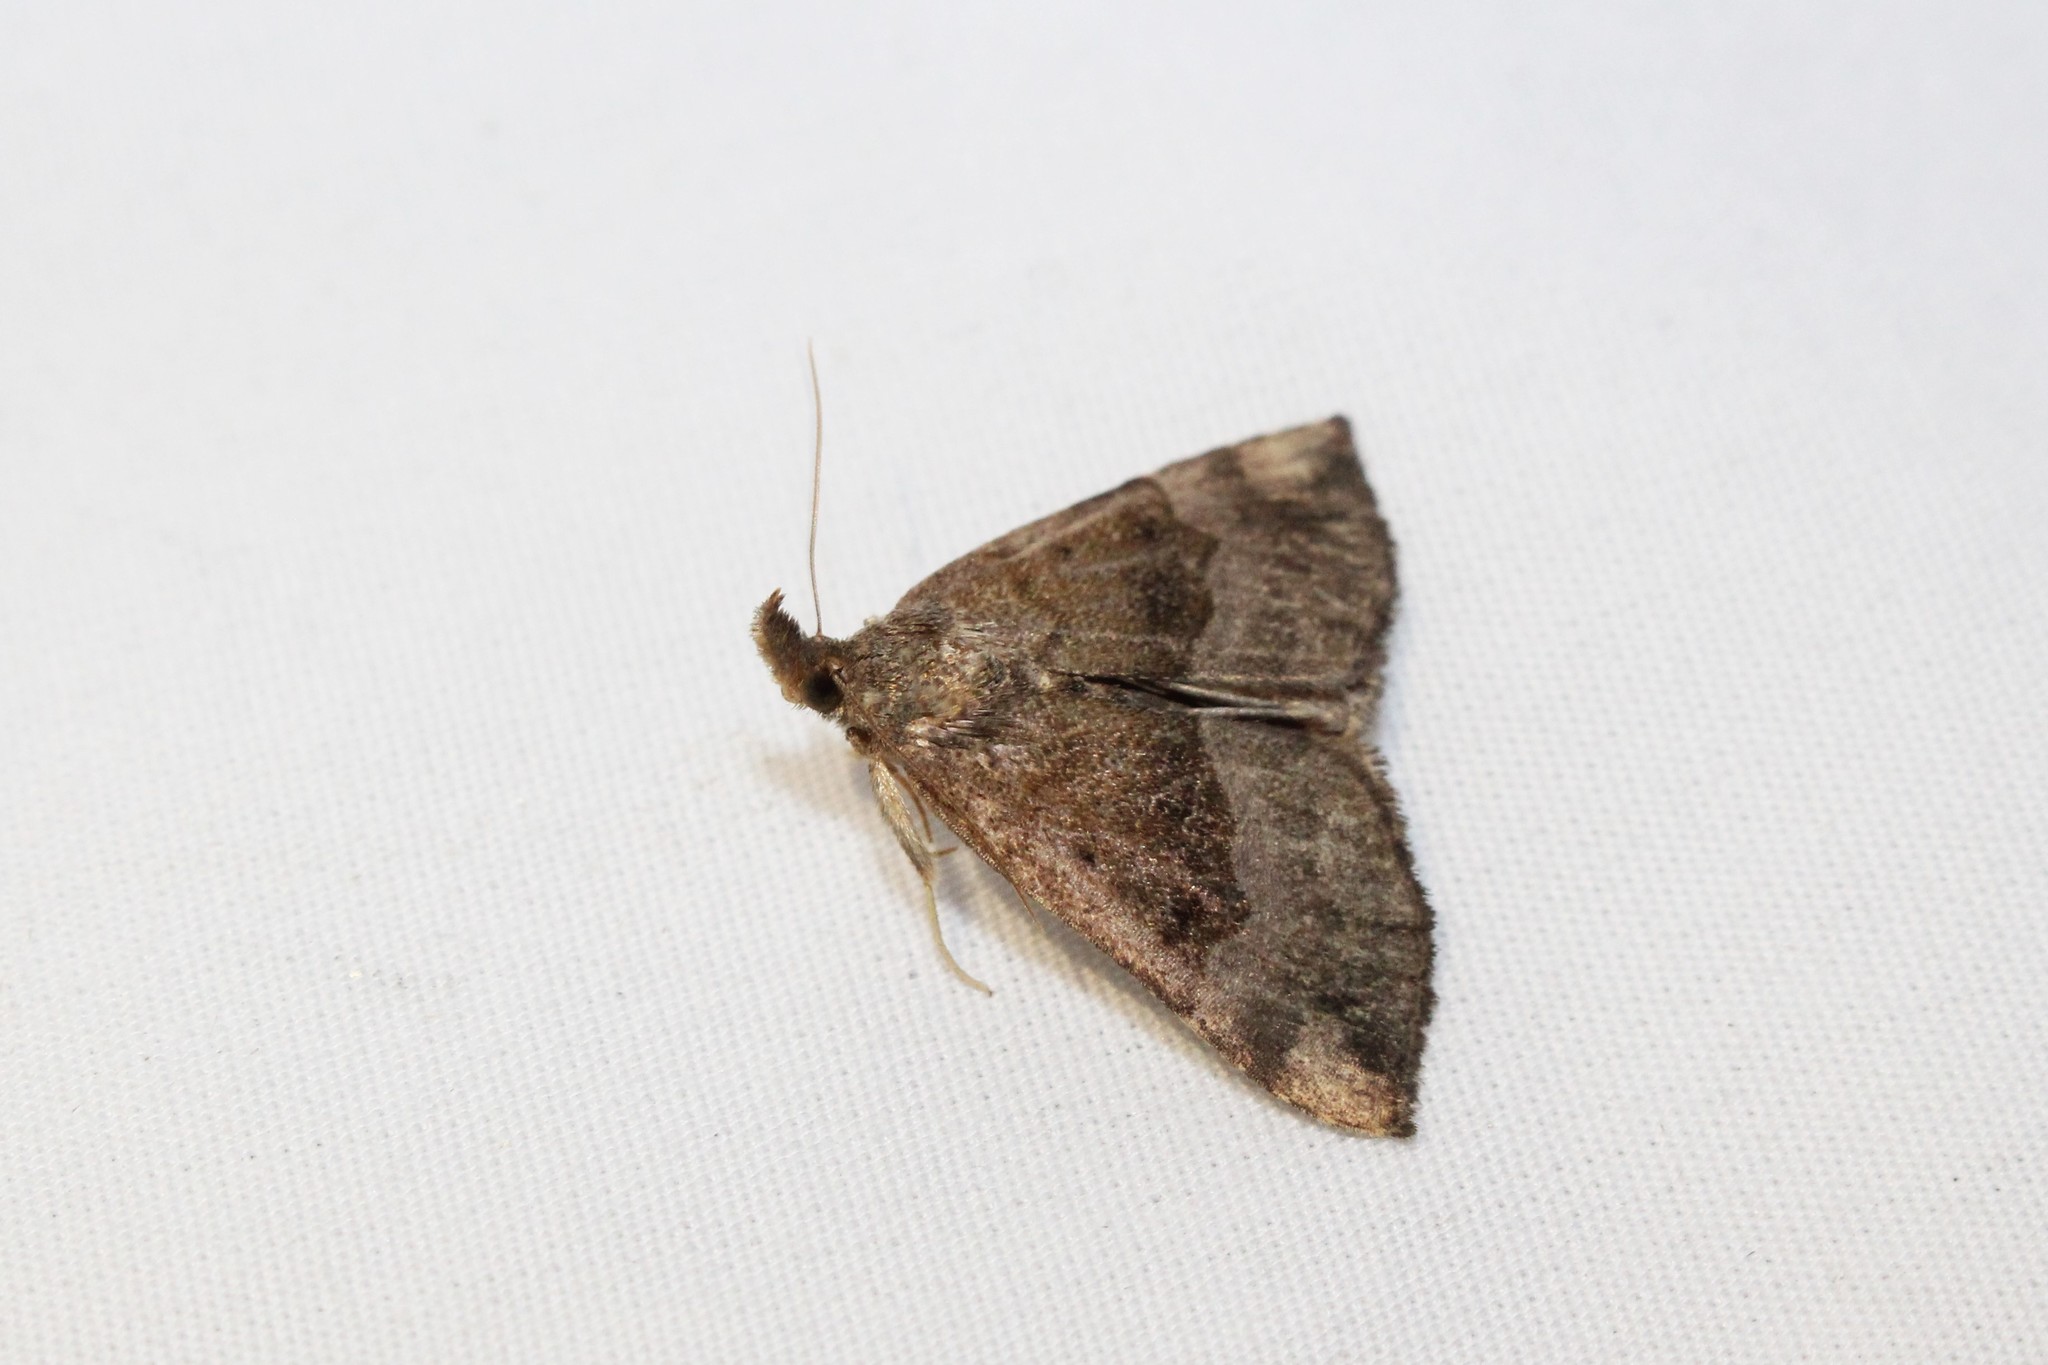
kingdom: Animalia
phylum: Arthropoda
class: Insecta
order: Lepidoptera
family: Erebidae
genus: Hypena
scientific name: Hypena madefactalis
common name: Gray-edged snout
